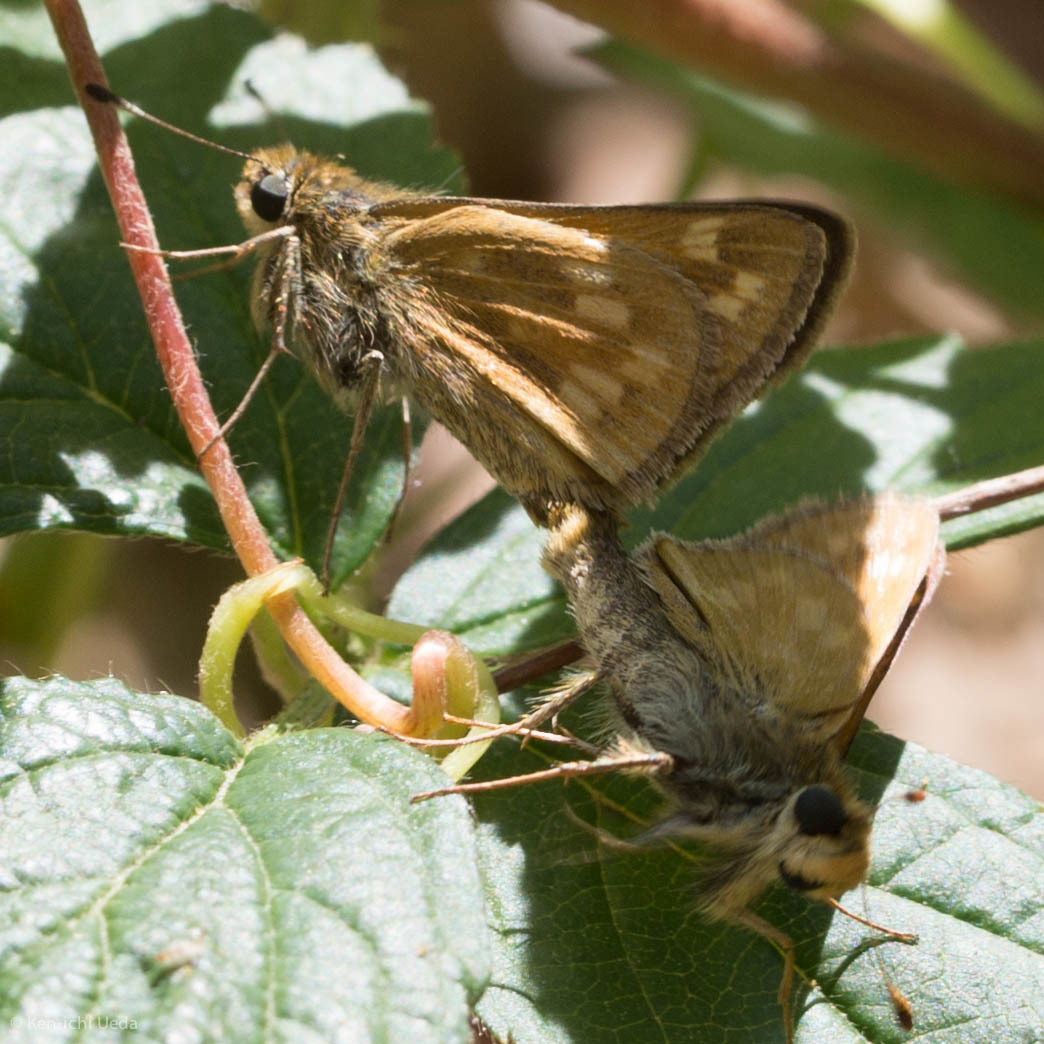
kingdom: Animalia
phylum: Arthropoda
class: Insecta
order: Lepidoptera
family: Hesperiidae
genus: Hesperia
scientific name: Hesperia sassacus
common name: Indian skipper
